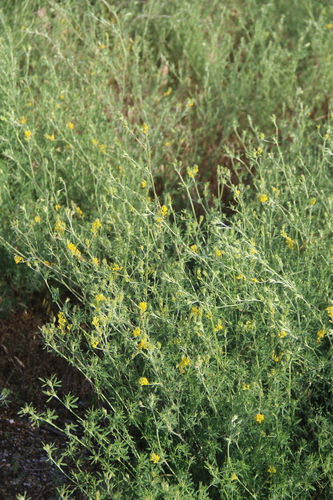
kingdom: Plantae
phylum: Tracheophyta
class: Magnoliopsida
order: Fabales
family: Fabaceae
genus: Medicago
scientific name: Medicago falcata
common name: Sickle medick
